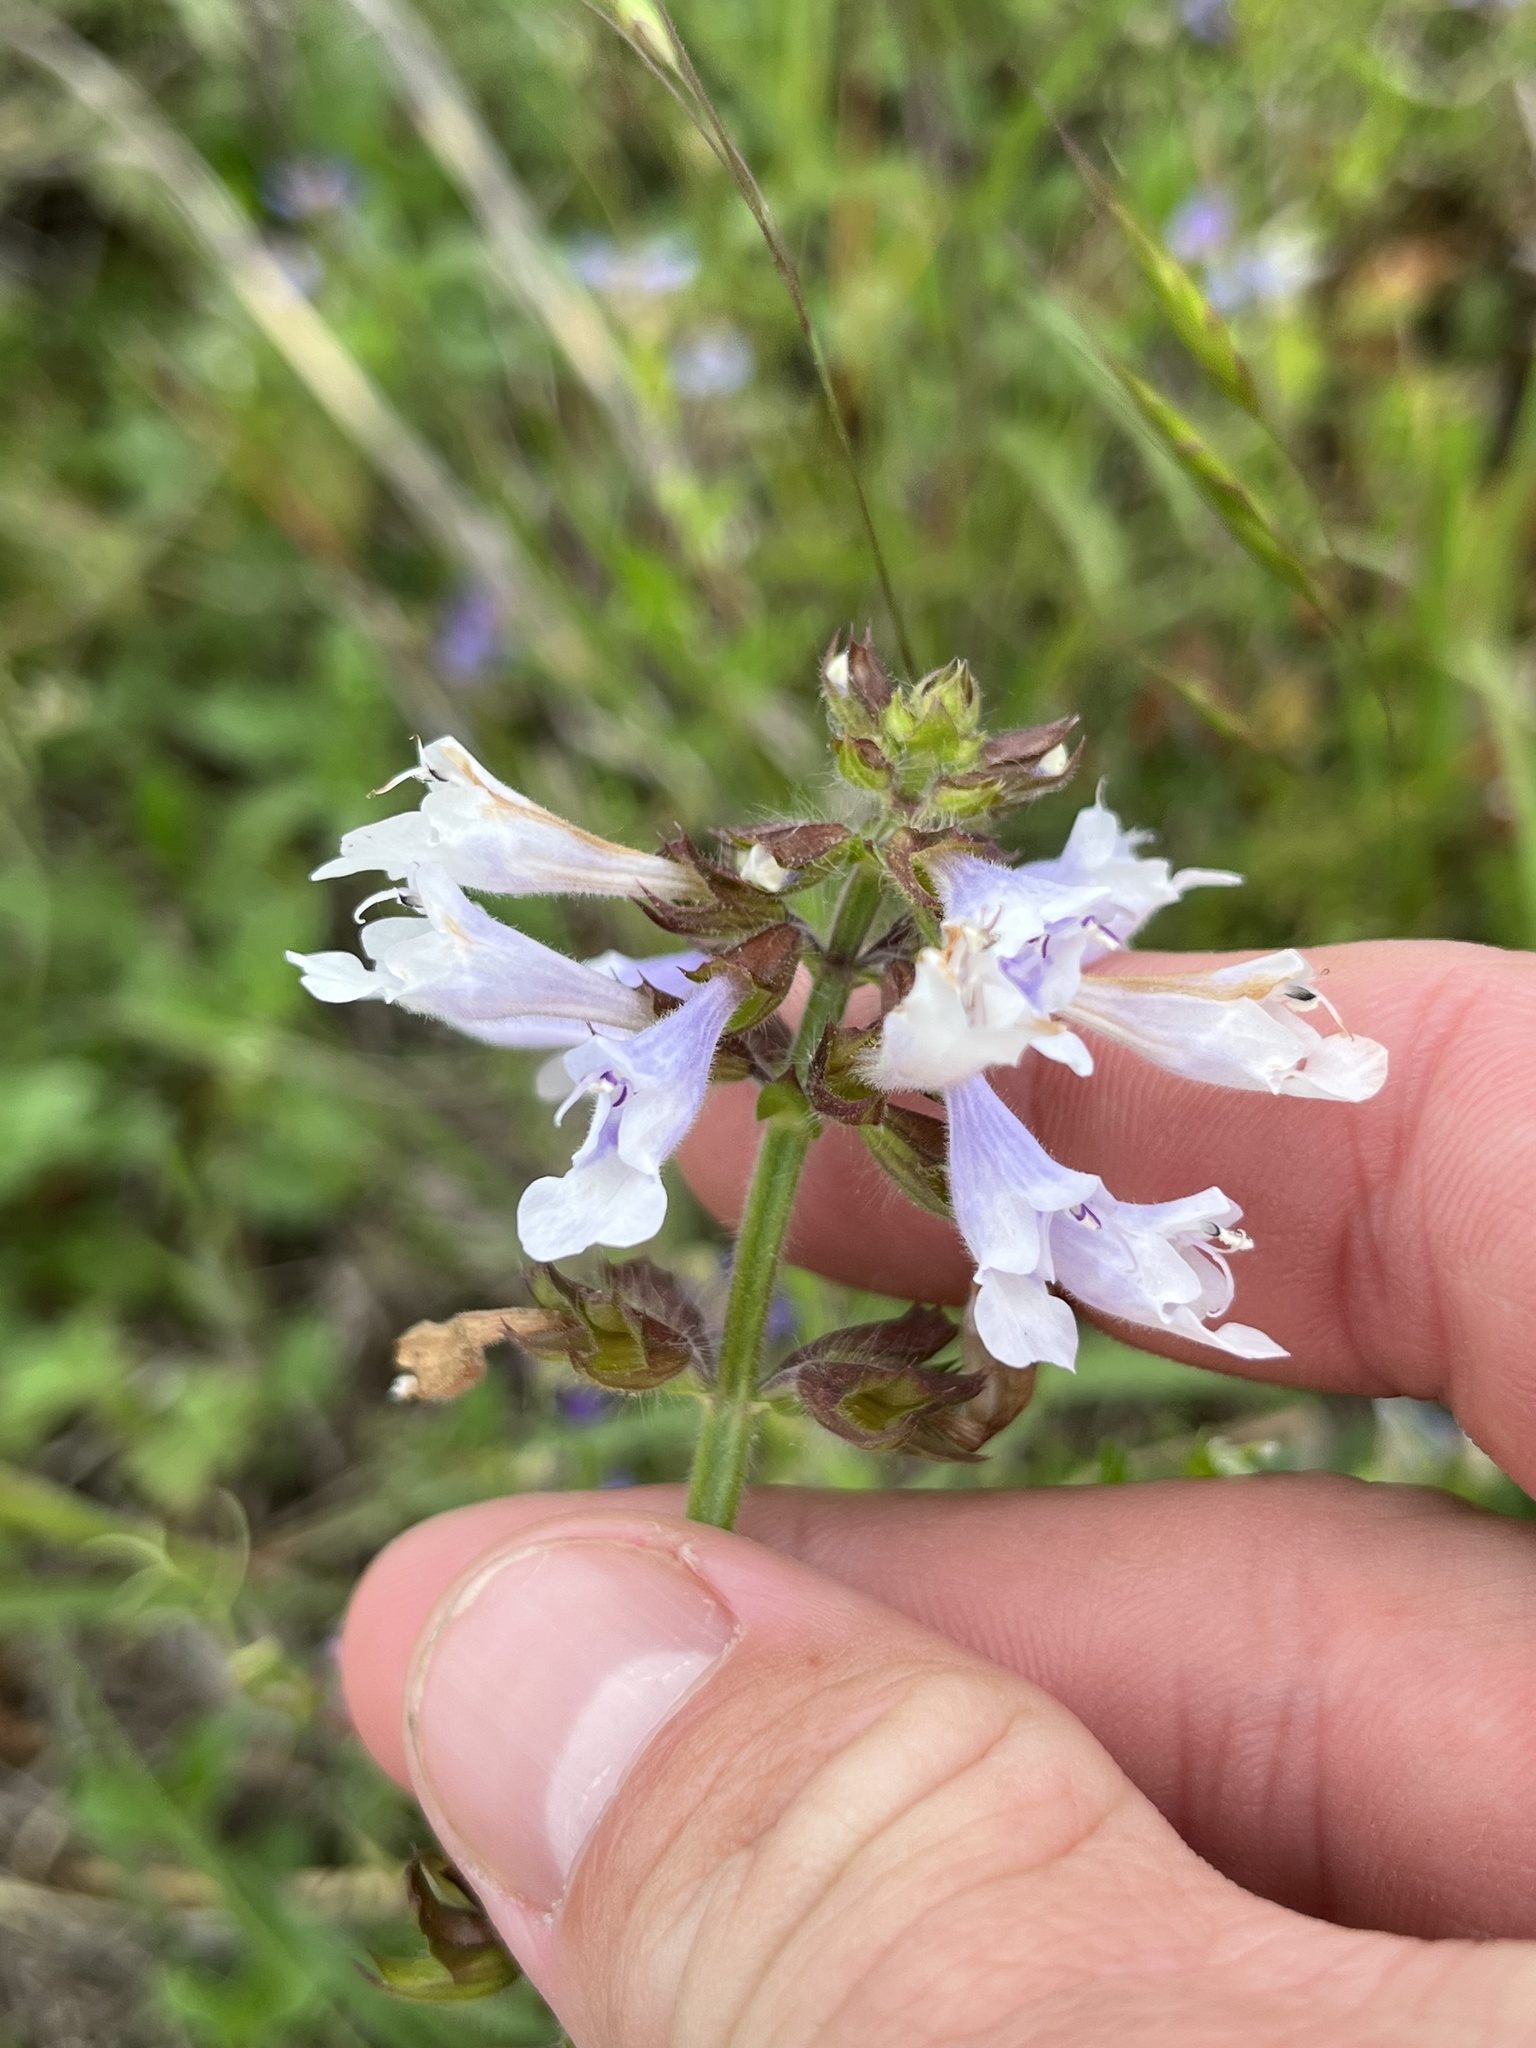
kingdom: Plantae
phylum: Tracheophyta
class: Magnoliopsida
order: Lamiales
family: Lamiaceae
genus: Salvia
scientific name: Salvia lyrata
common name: Cancerweed
